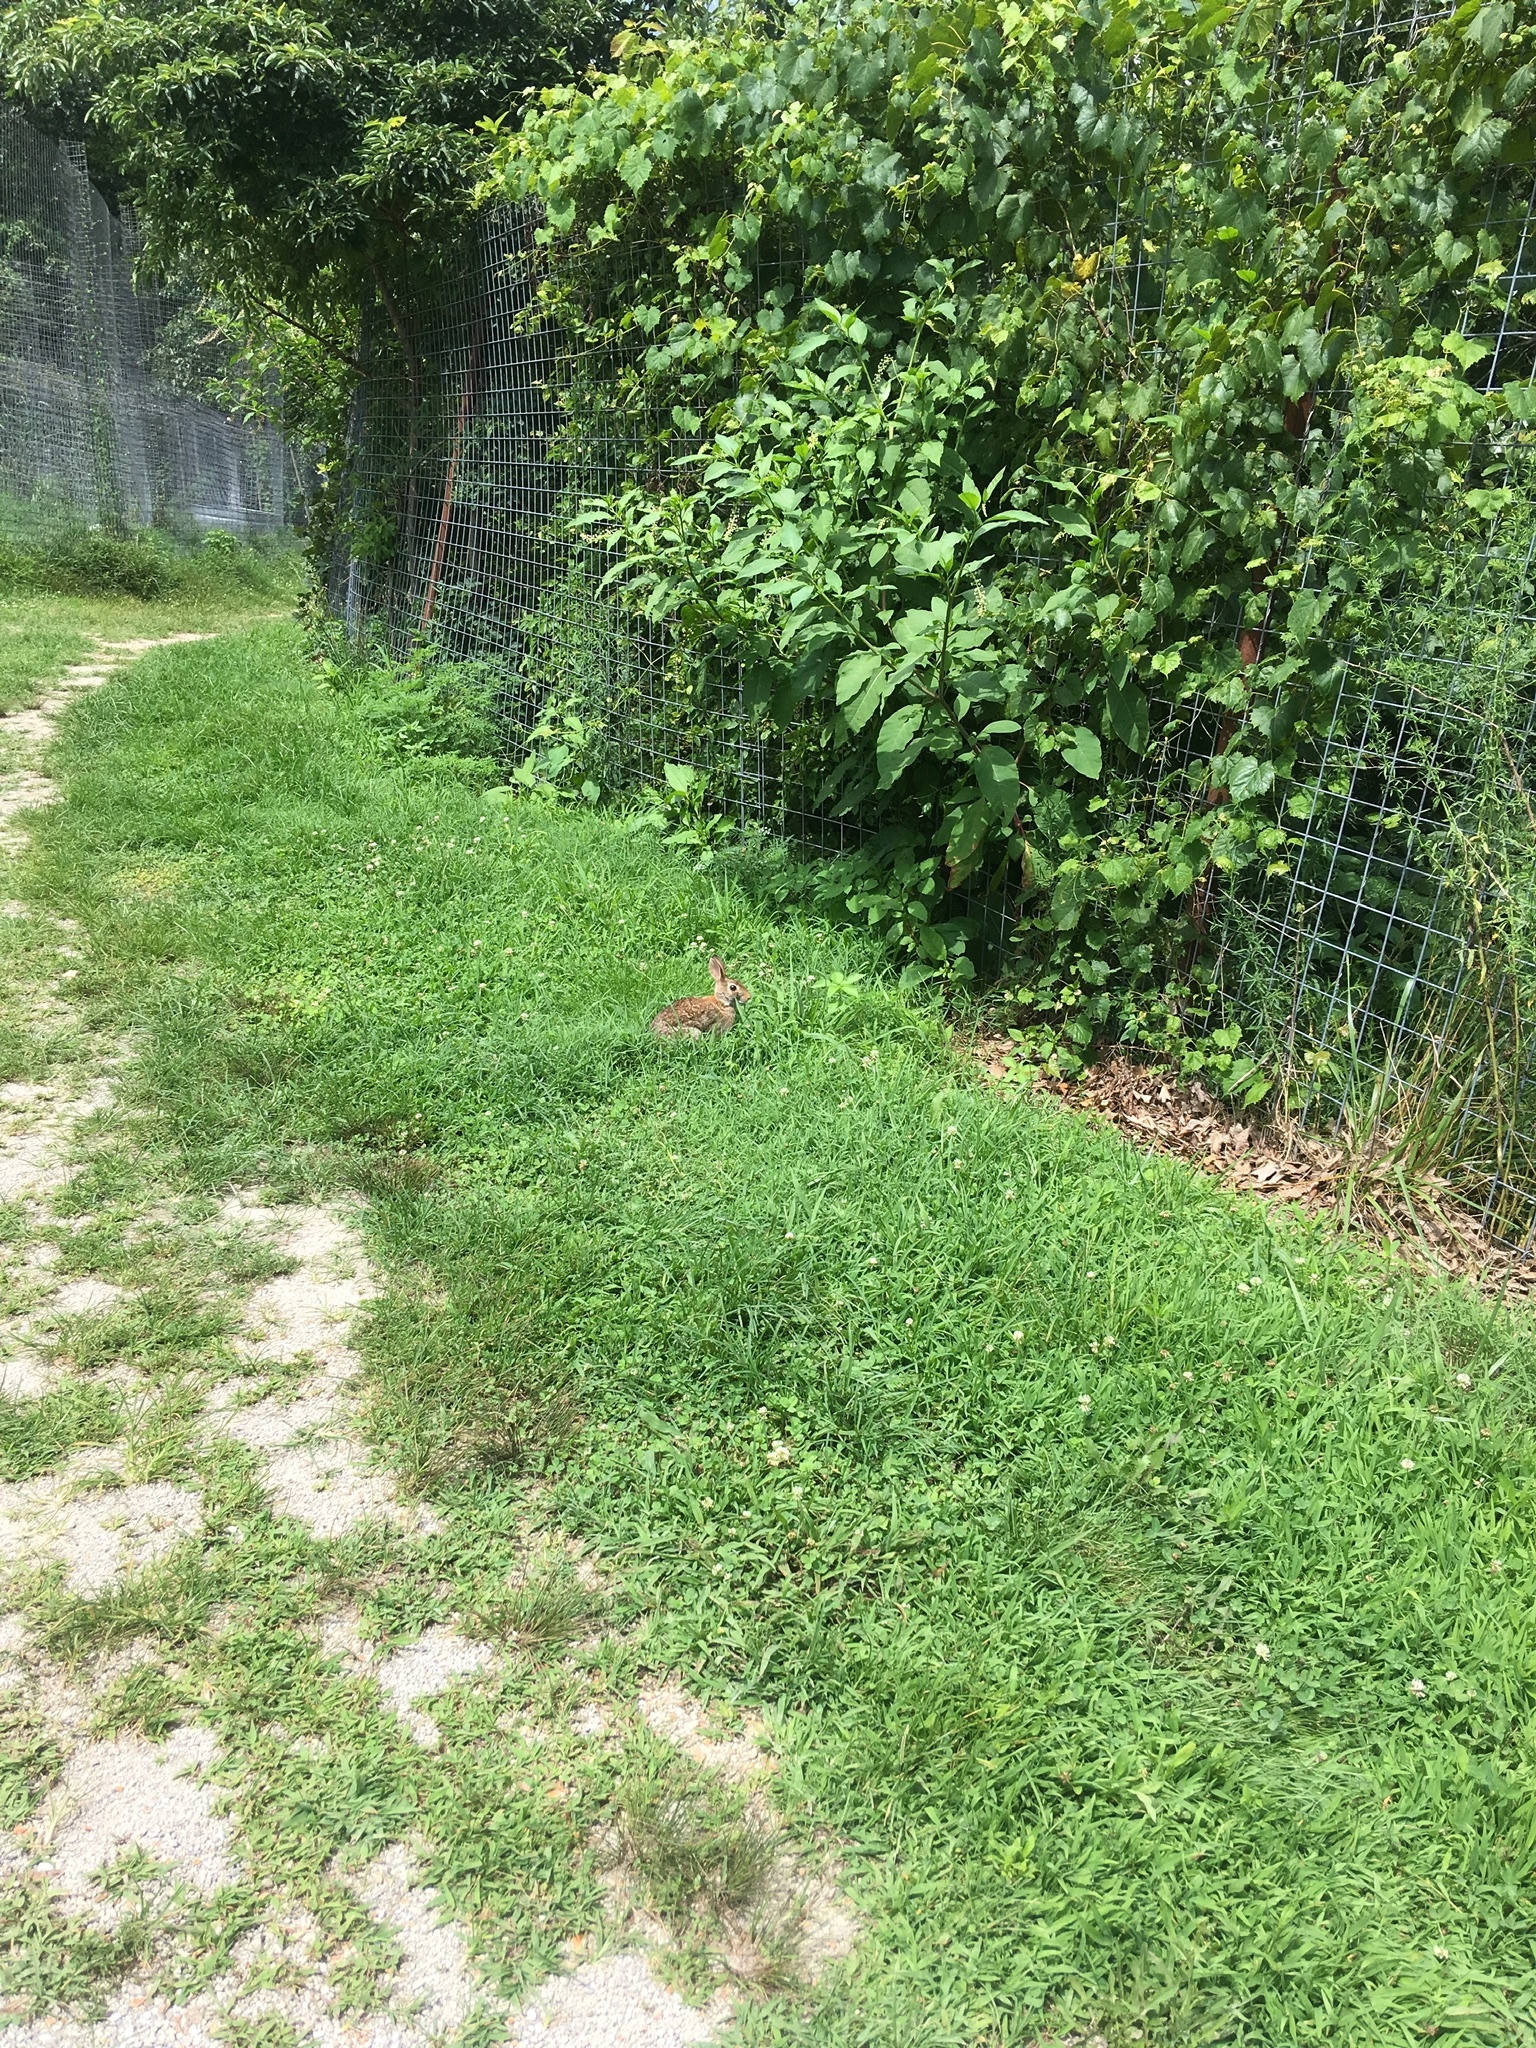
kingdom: Animalia
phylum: Chordata
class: Mammalia
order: Lagomorpha
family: Leporidae
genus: Sylvilagus
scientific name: Sylvilagus floridanus
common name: Eastern cottontail
